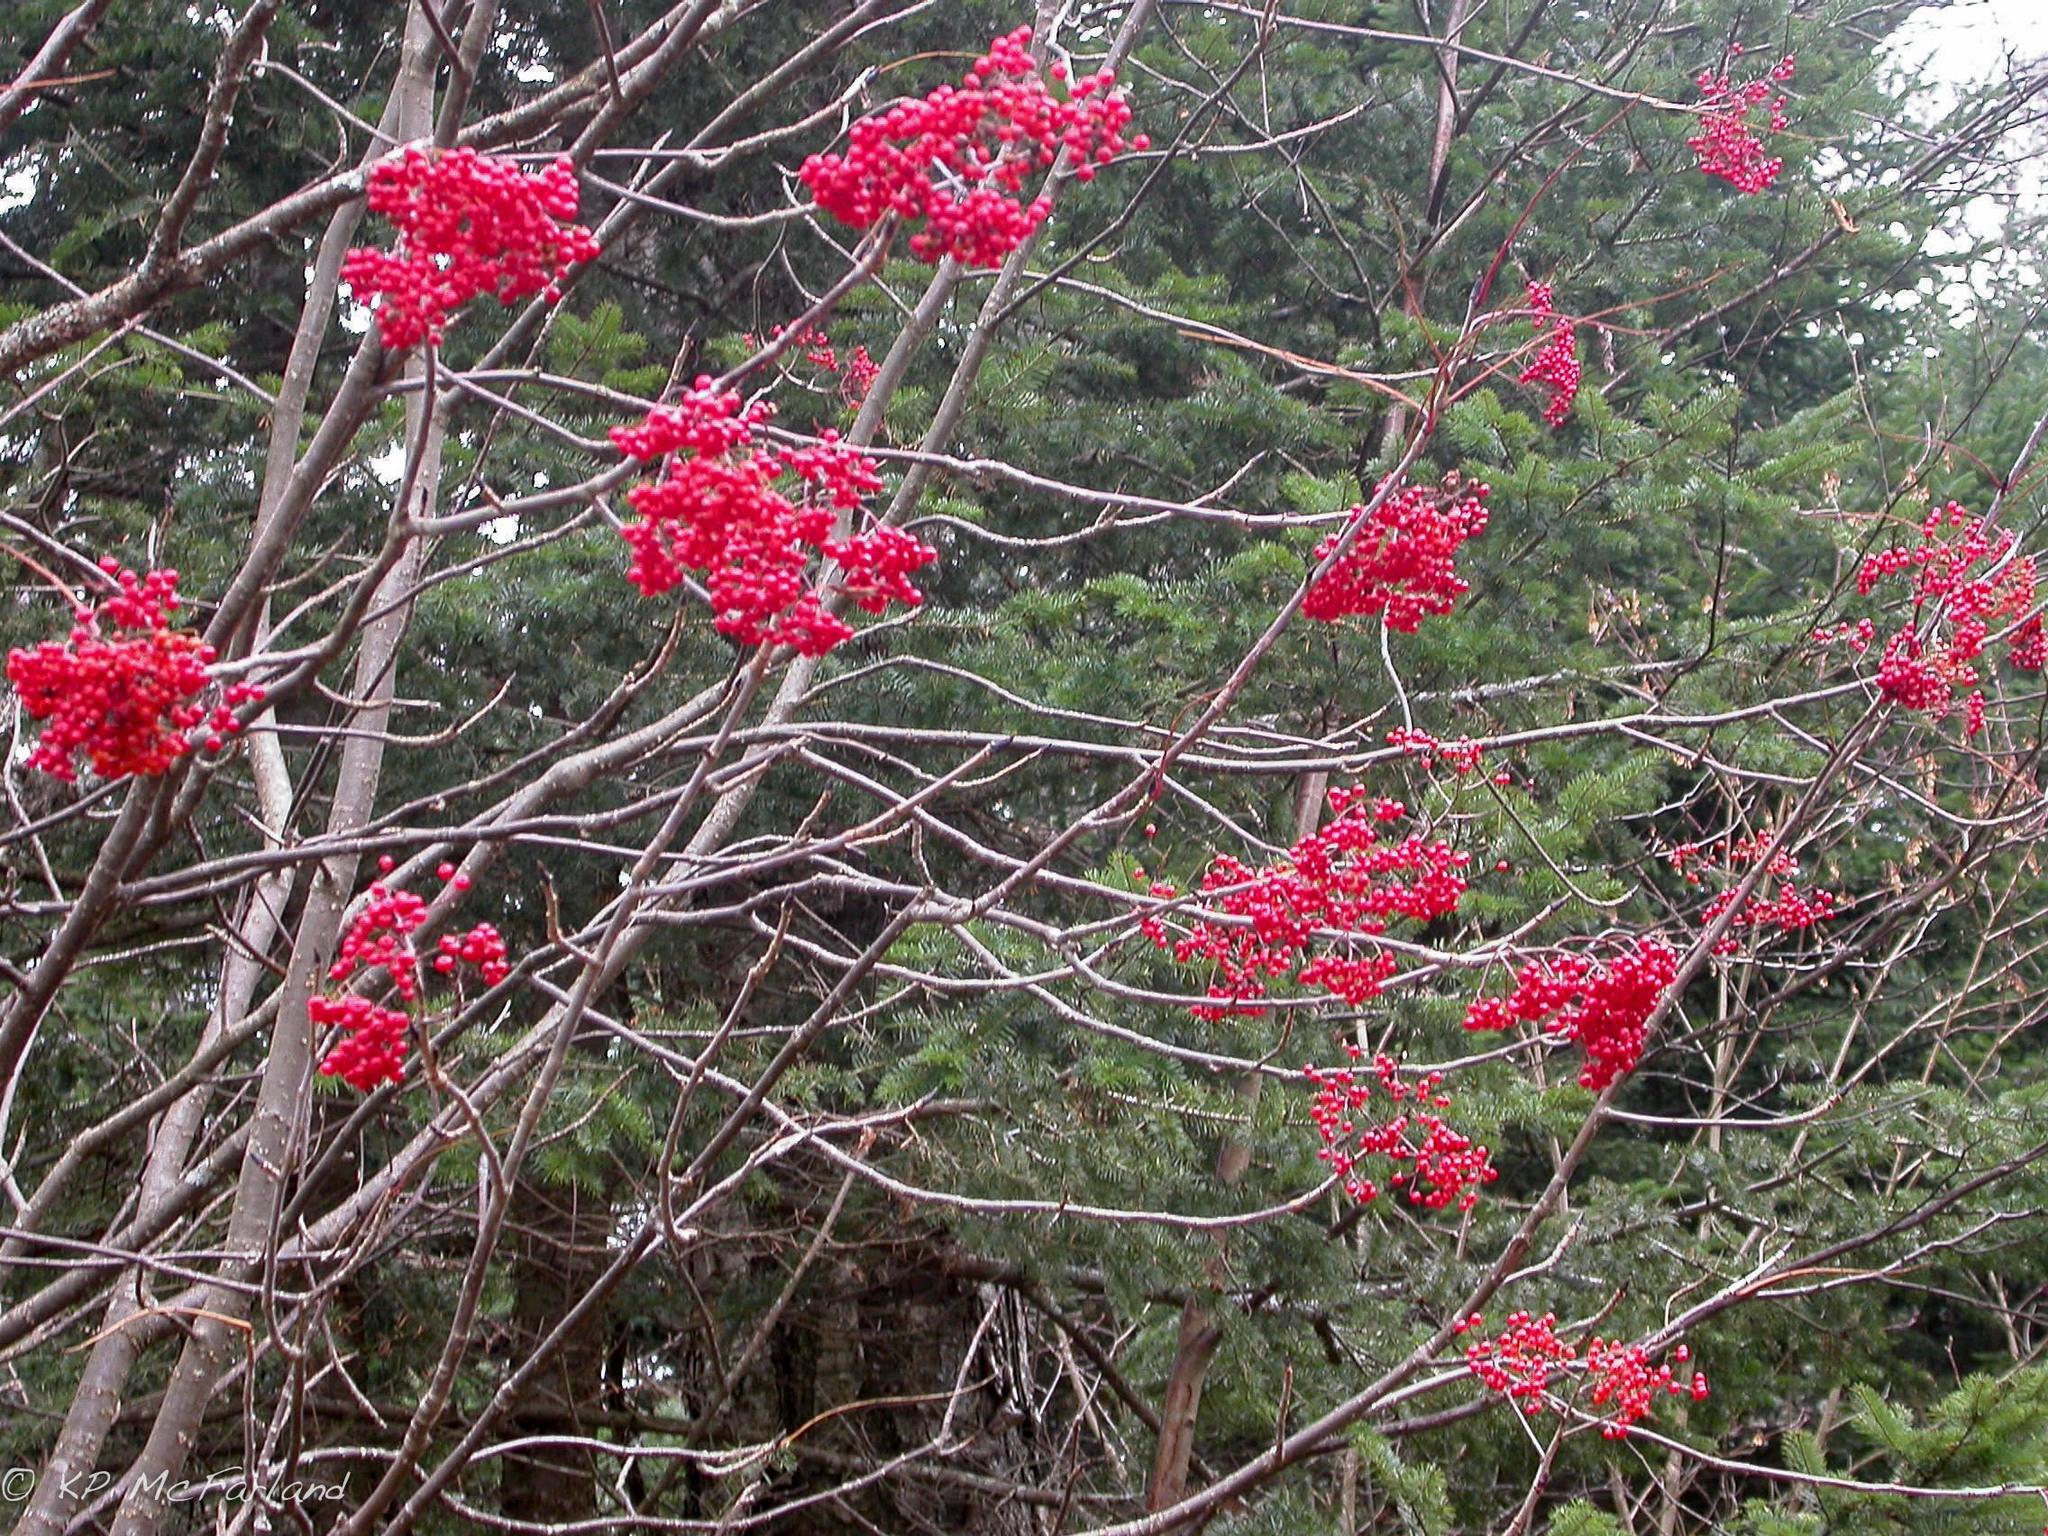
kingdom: Plantae
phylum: Tracheophyta
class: Magnoliopsida
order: Rosales
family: Rosaceae
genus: Sorbus
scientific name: Sorbus americana
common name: American mountain-ash
